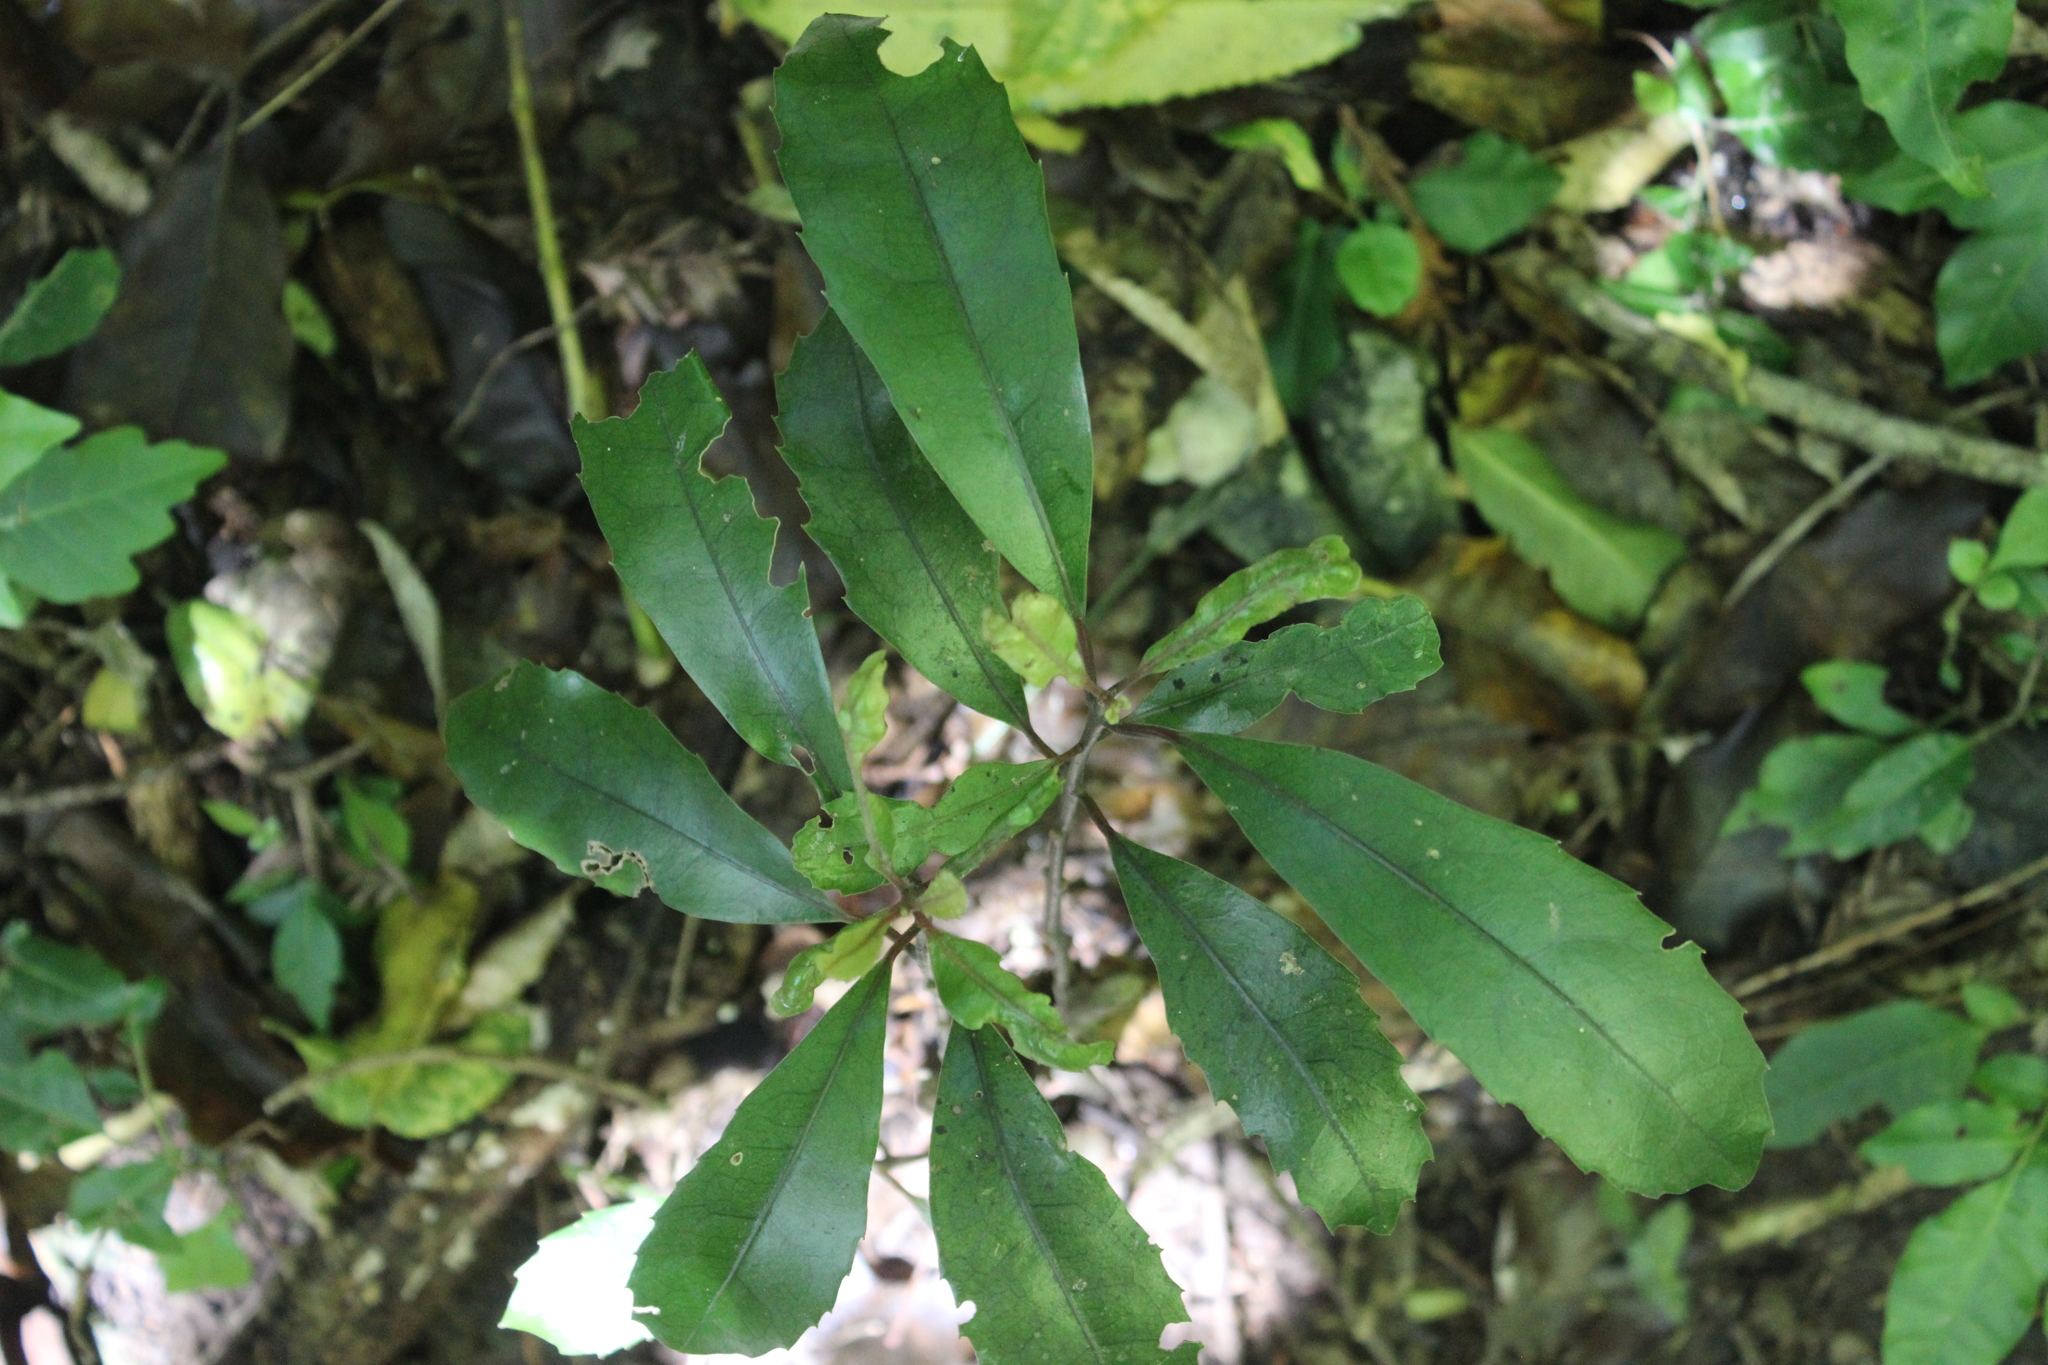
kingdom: Plantae
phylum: Tracheophyta
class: Magnoliopsida
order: Laurales
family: Monimiaceae
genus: Hedycarya
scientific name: Hedycarya arborea
